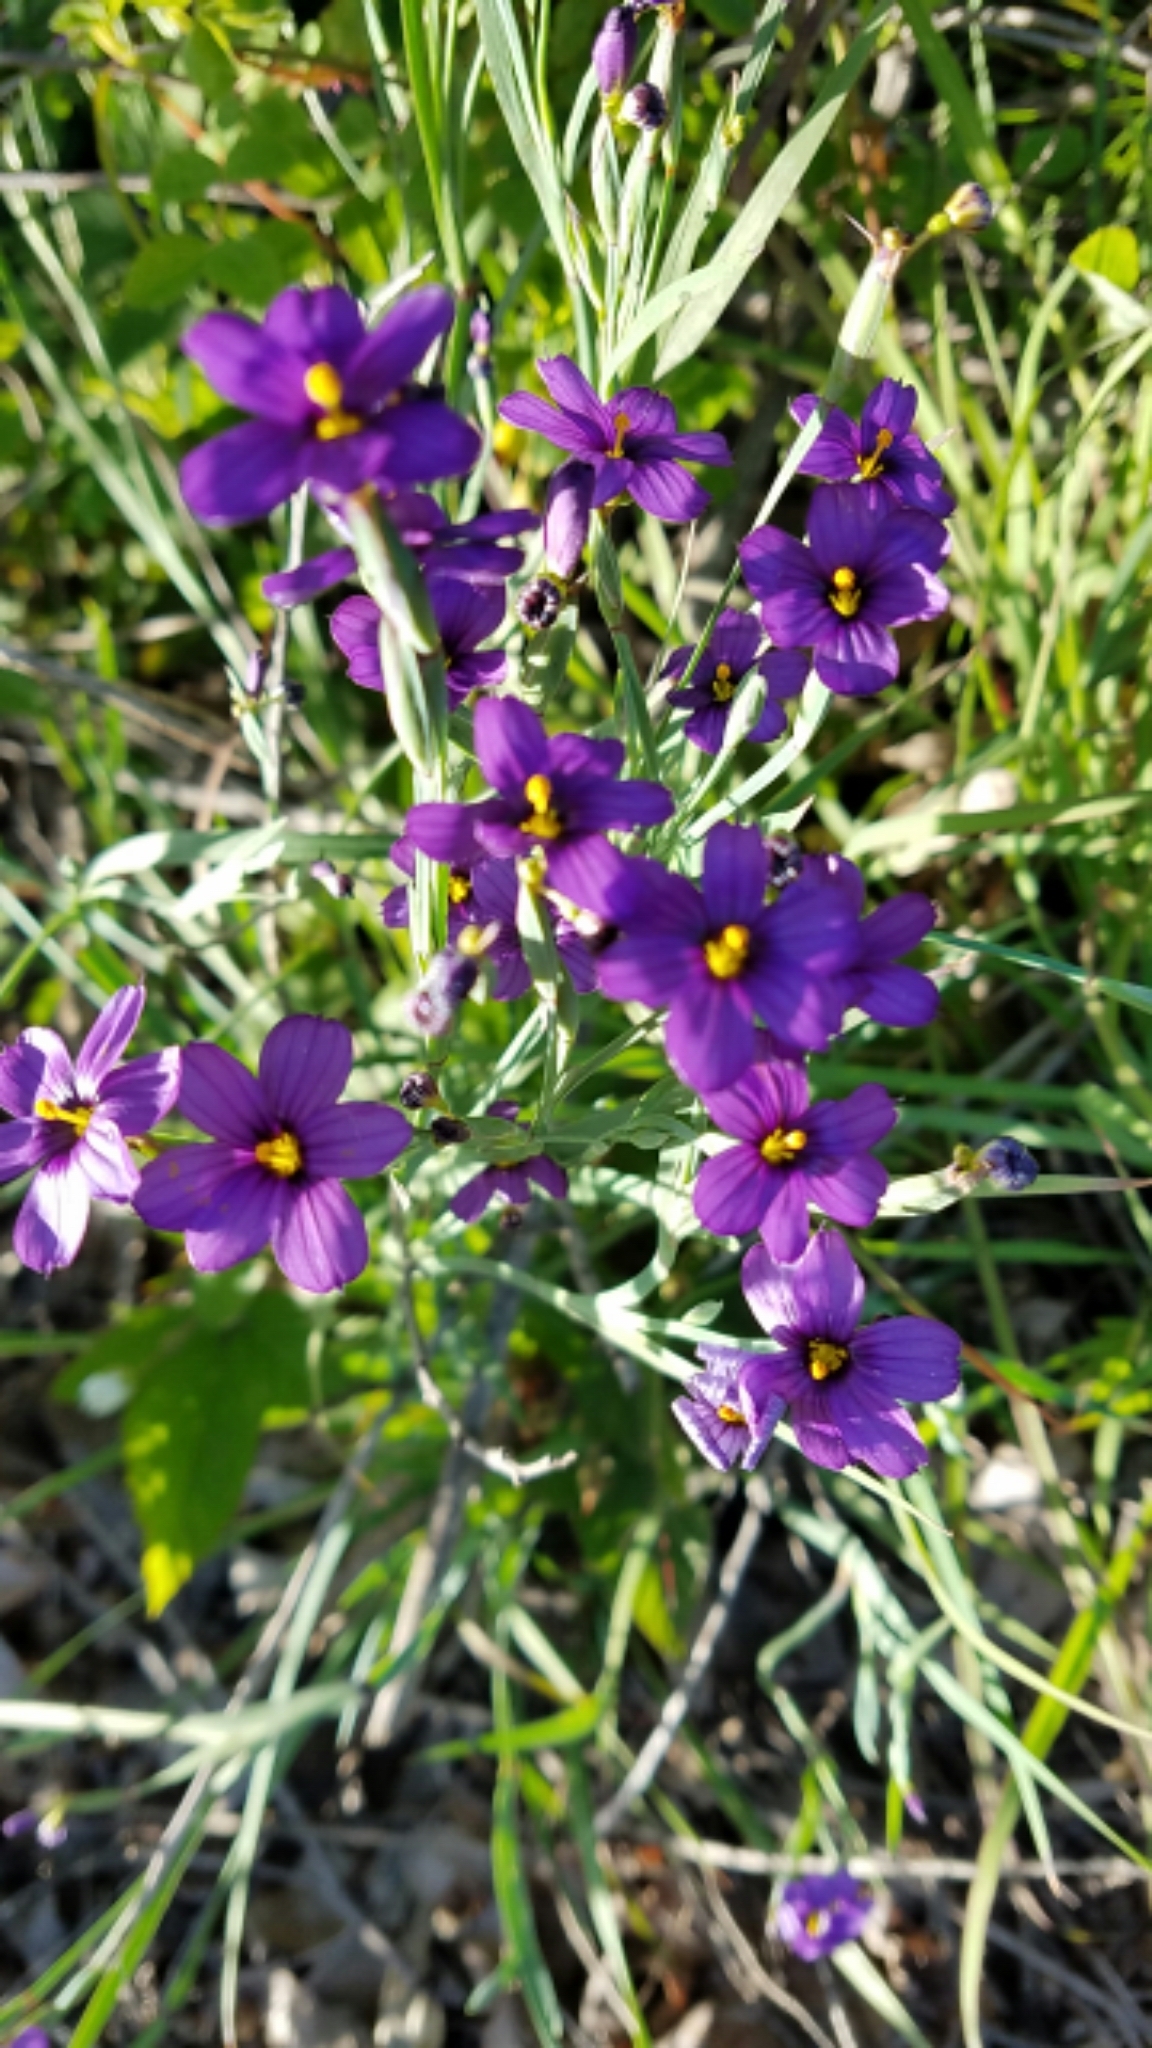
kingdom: Plantae
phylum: Tracheophyta
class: Liliopsida
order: Asparagales
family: Iridaceae
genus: Sisyrinchium
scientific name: Sisyrinchium bellum
